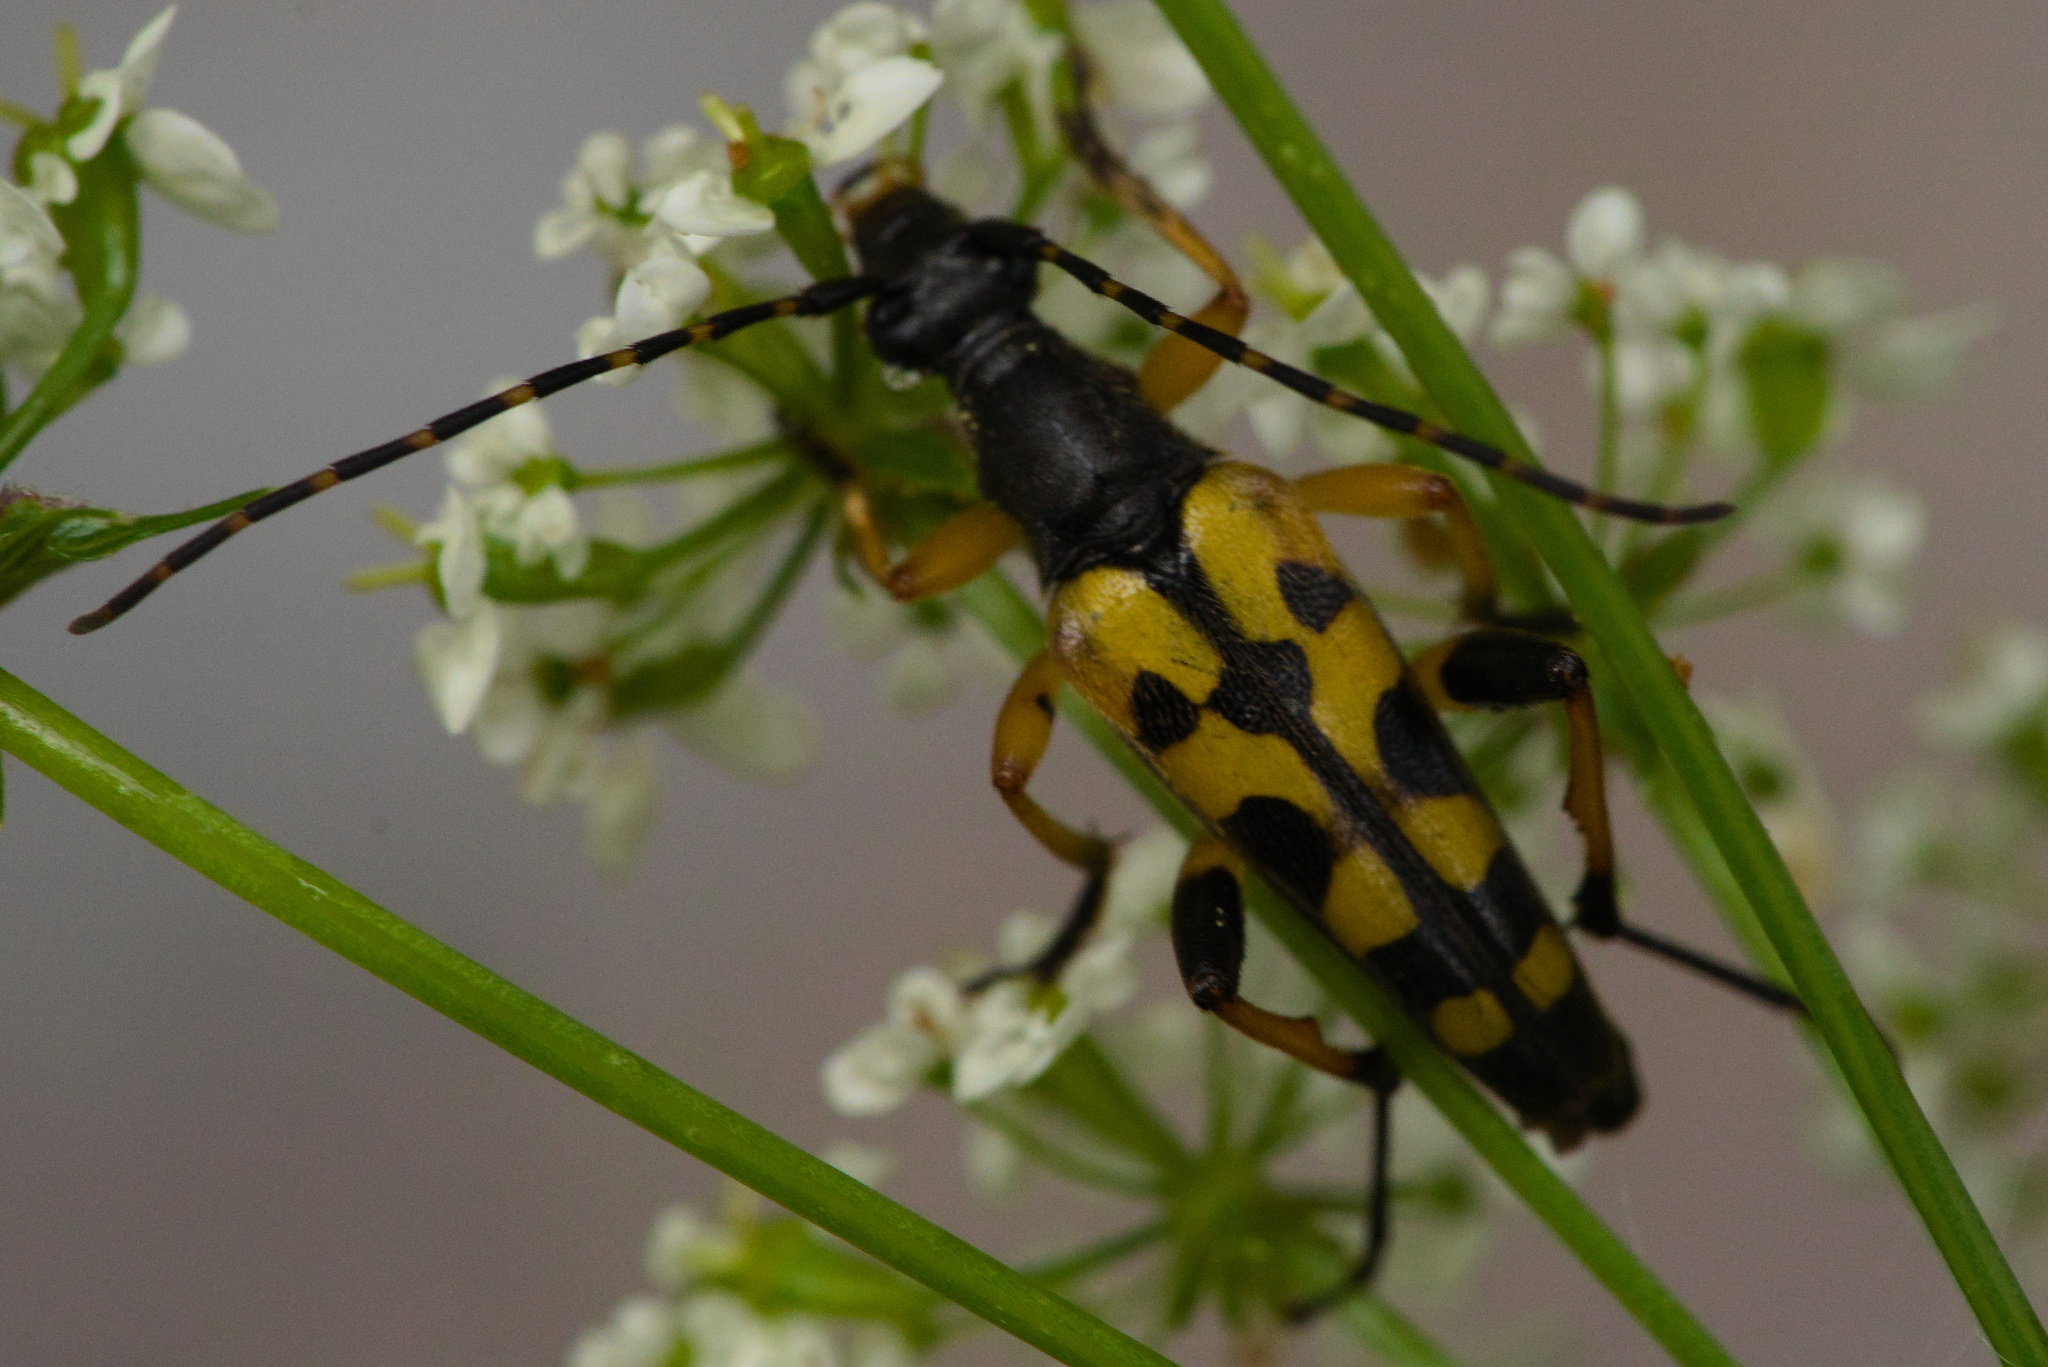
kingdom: Animalia
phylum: Arthropoda
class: Insecta
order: Coleoptera
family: Cerambycidae
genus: Rutpela
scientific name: Rutpela maculata
